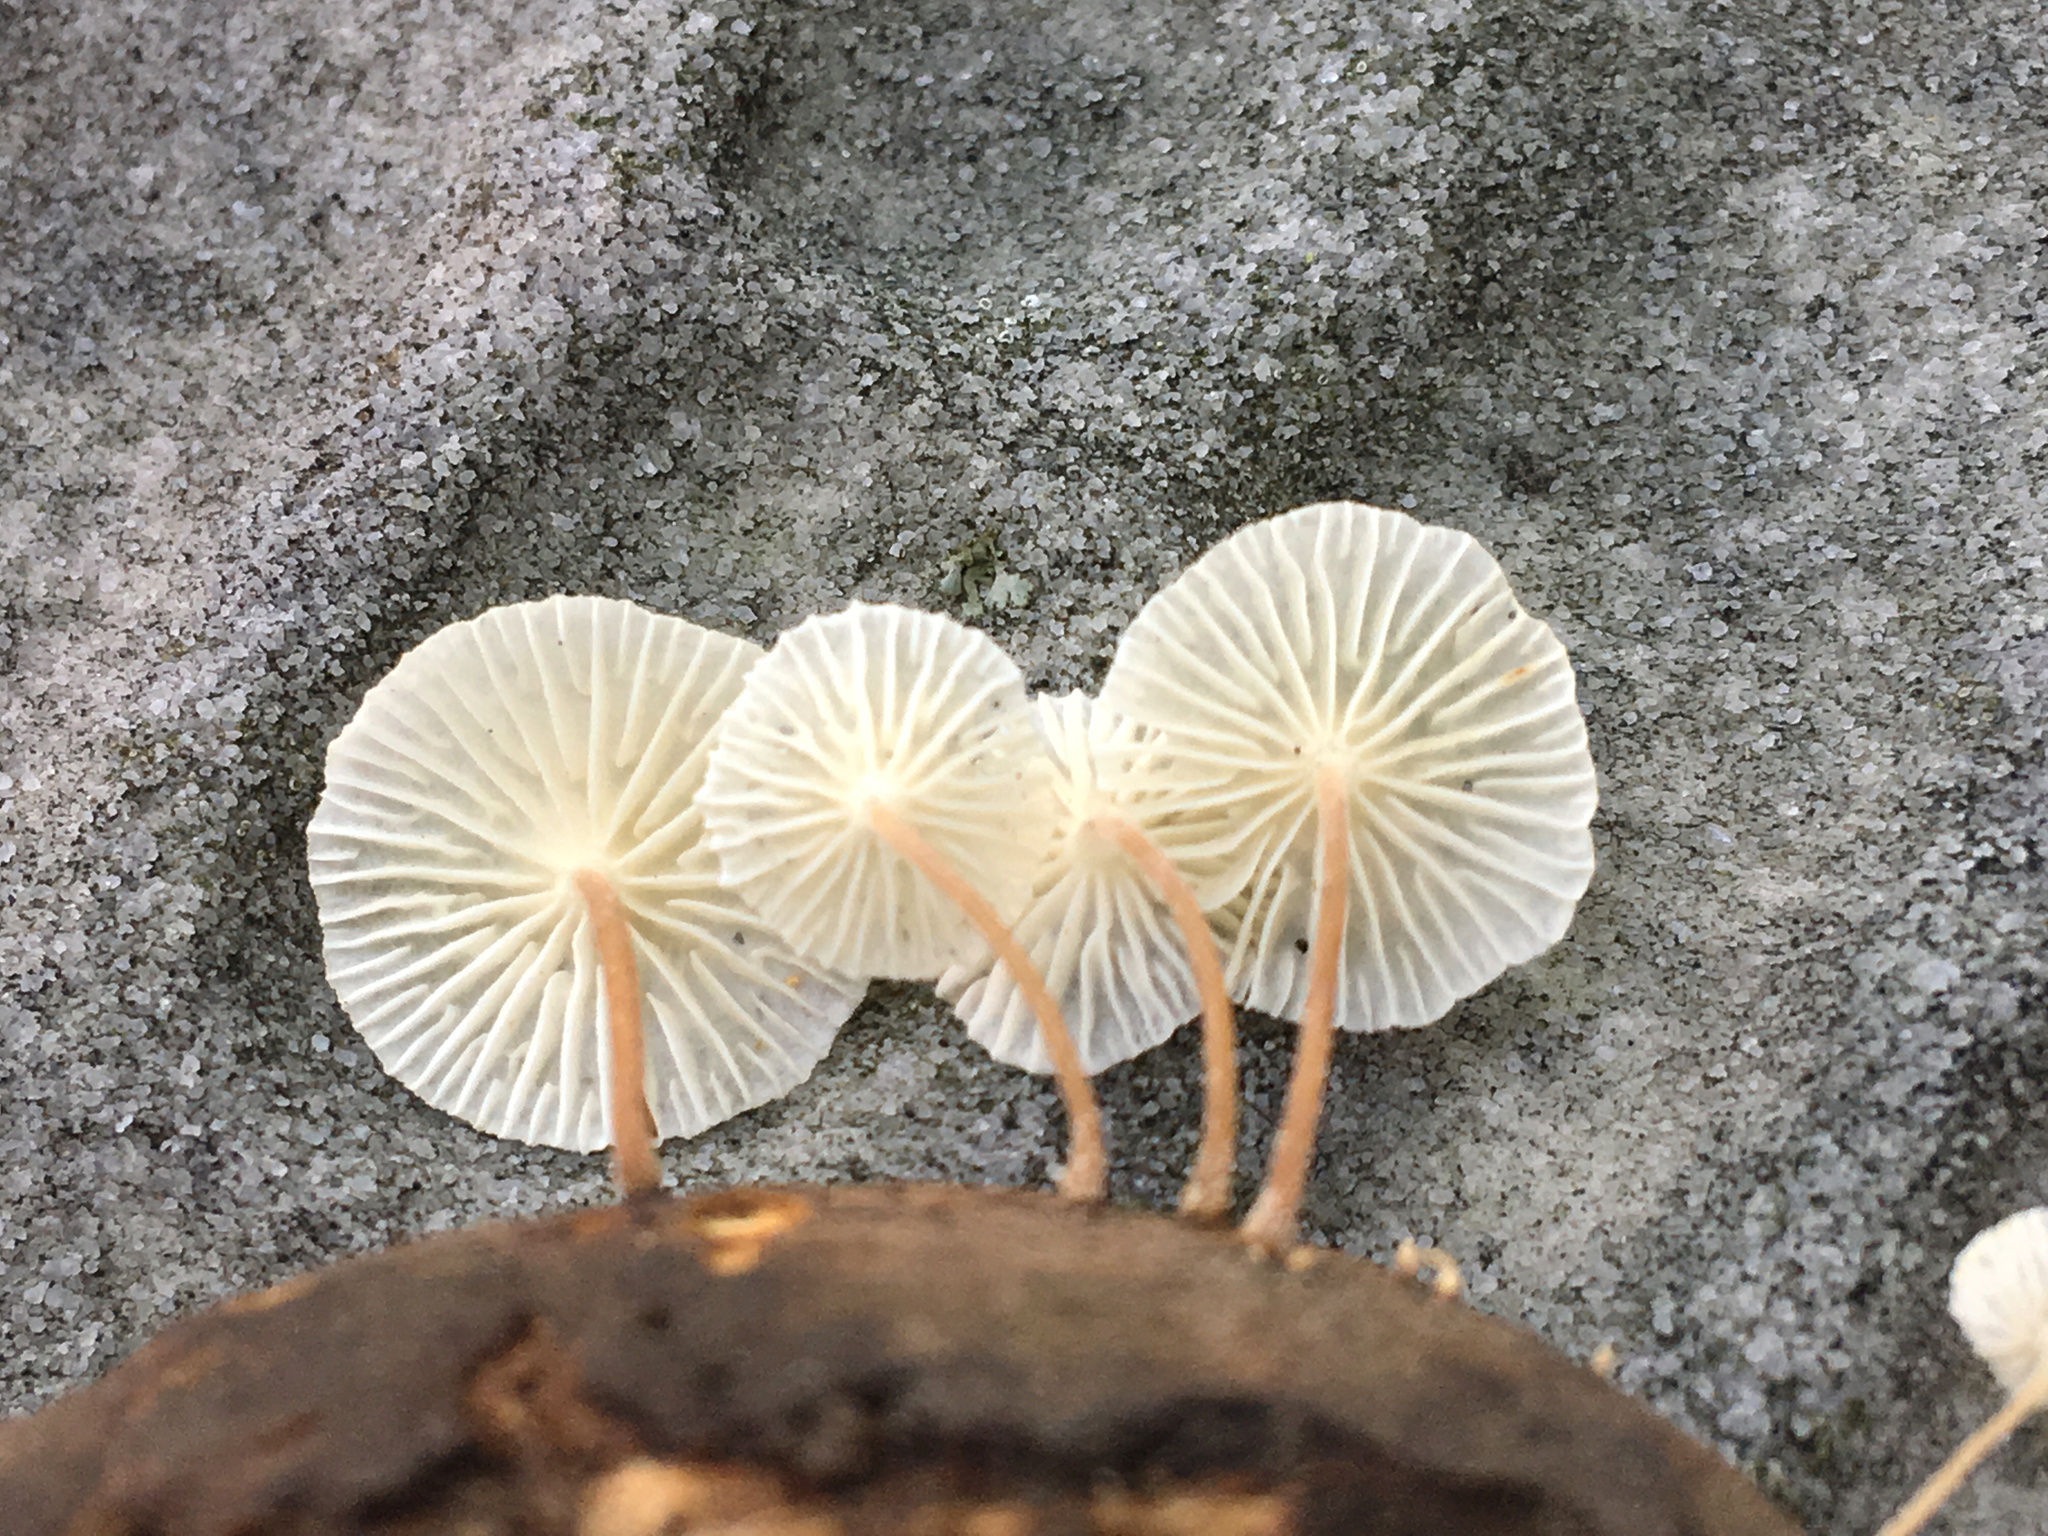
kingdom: Fungi
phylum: Basidiomycota
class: Agaricomycetes
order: Agaricales
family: Omphalotaceae
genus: Collybiopsis
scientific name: Collybiopsis vaillantii
